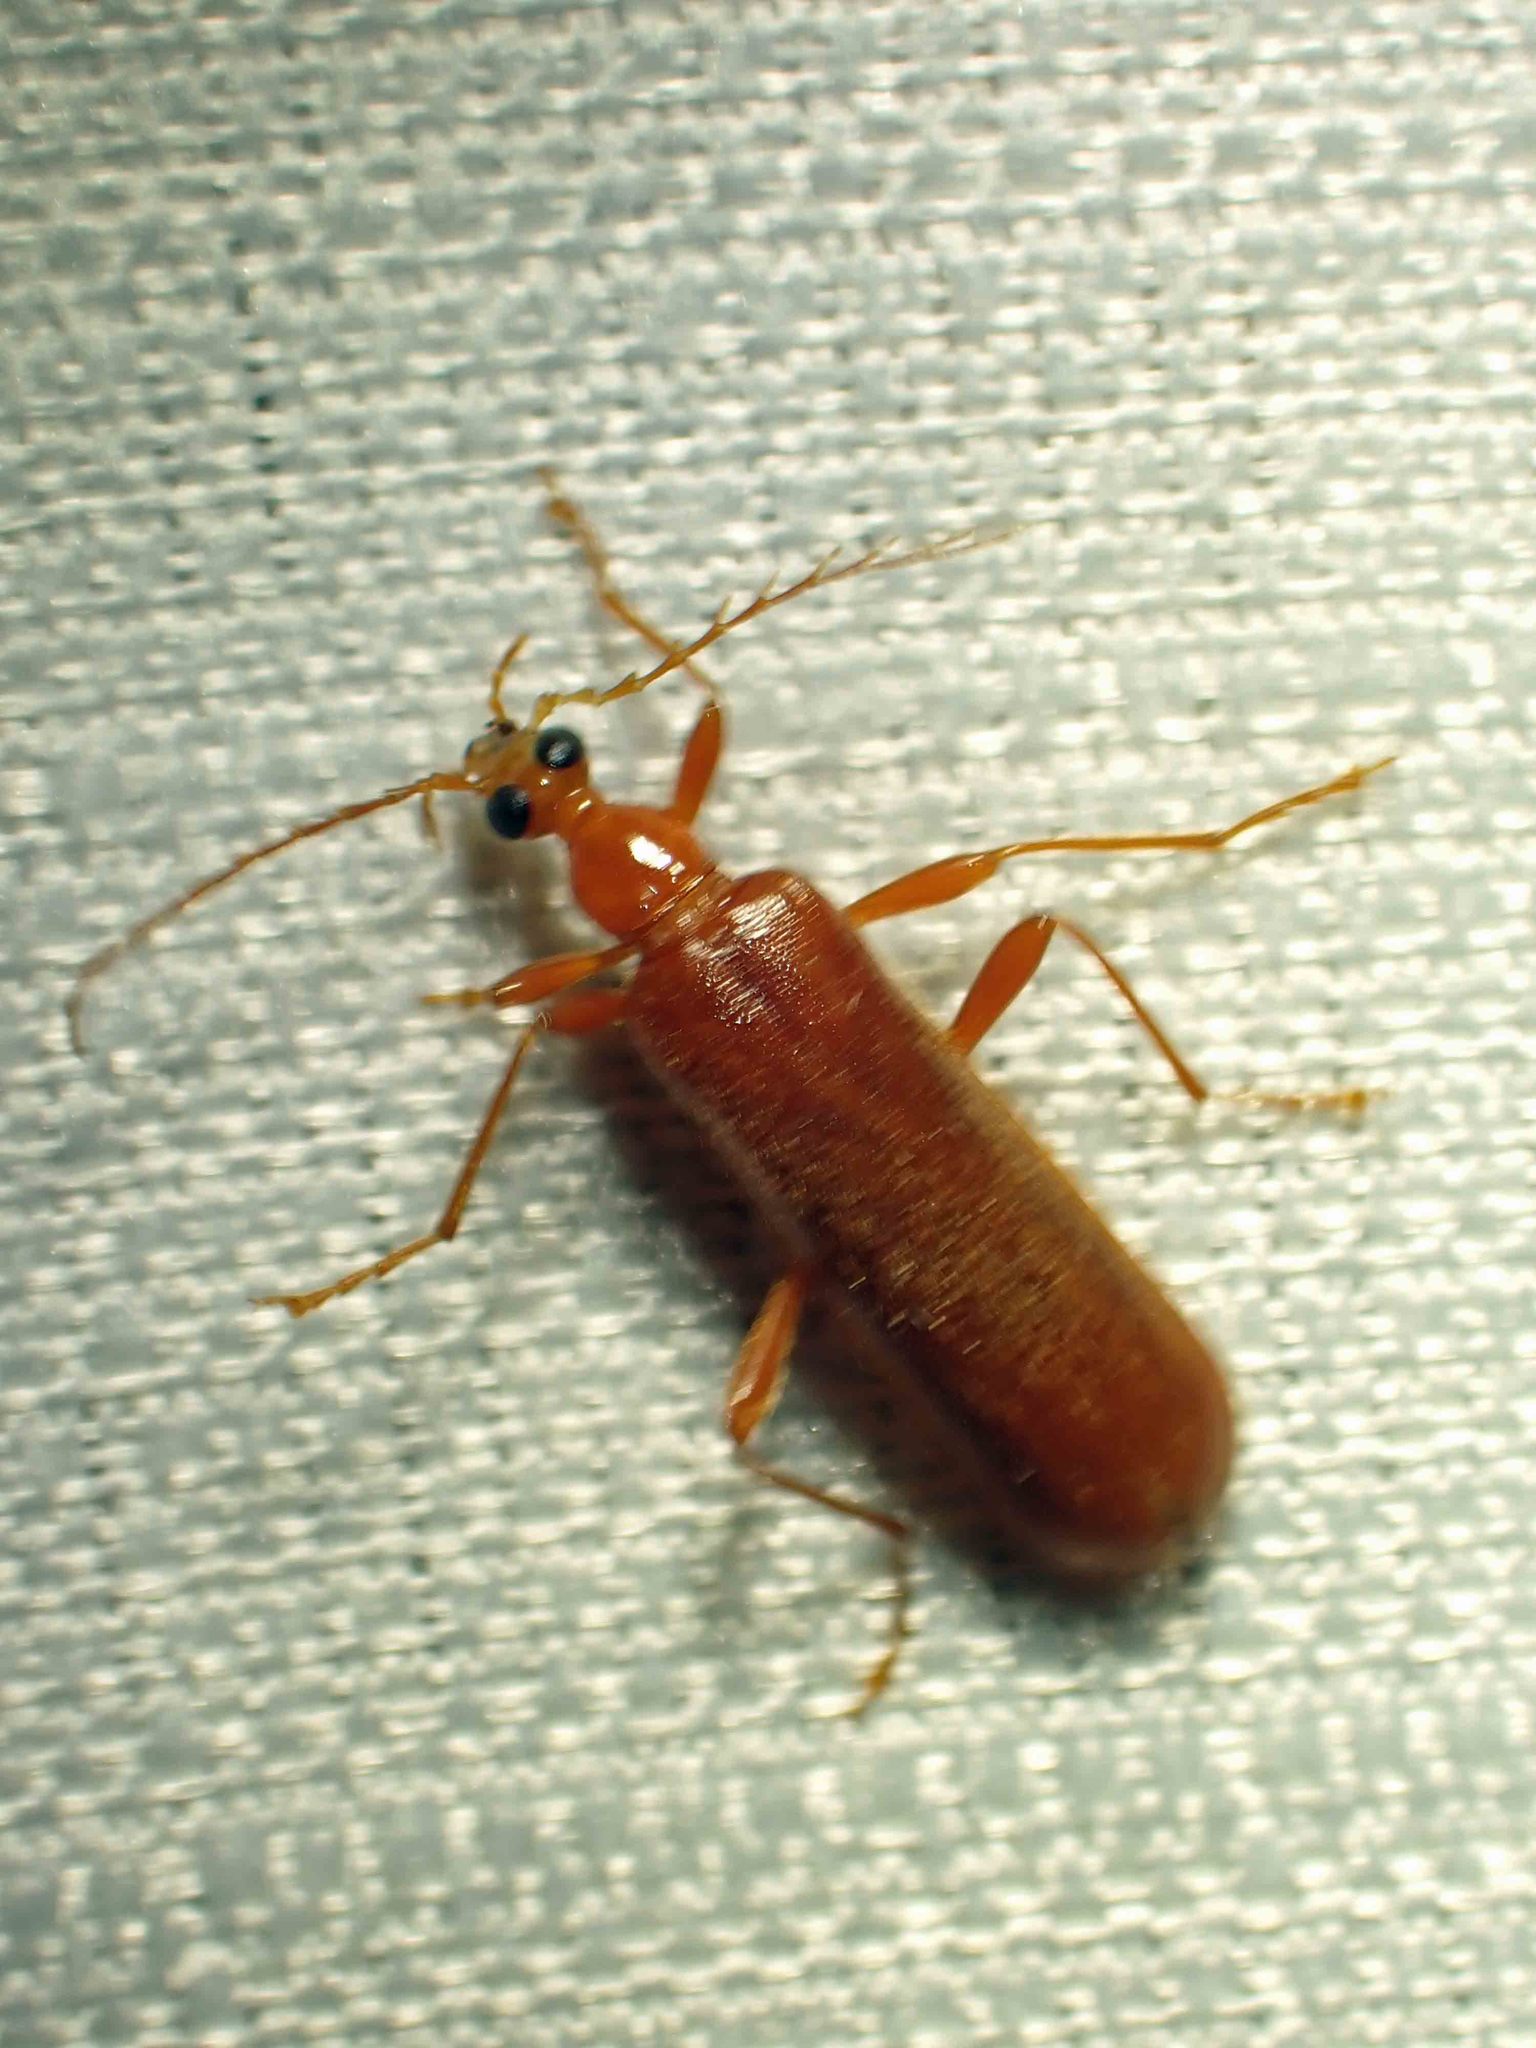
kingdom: Animalia
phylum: Arthropoda
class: Insecta
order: Coleoptera
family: Pyrochroidae
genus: Dendroides
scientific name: Dendroides concolor
